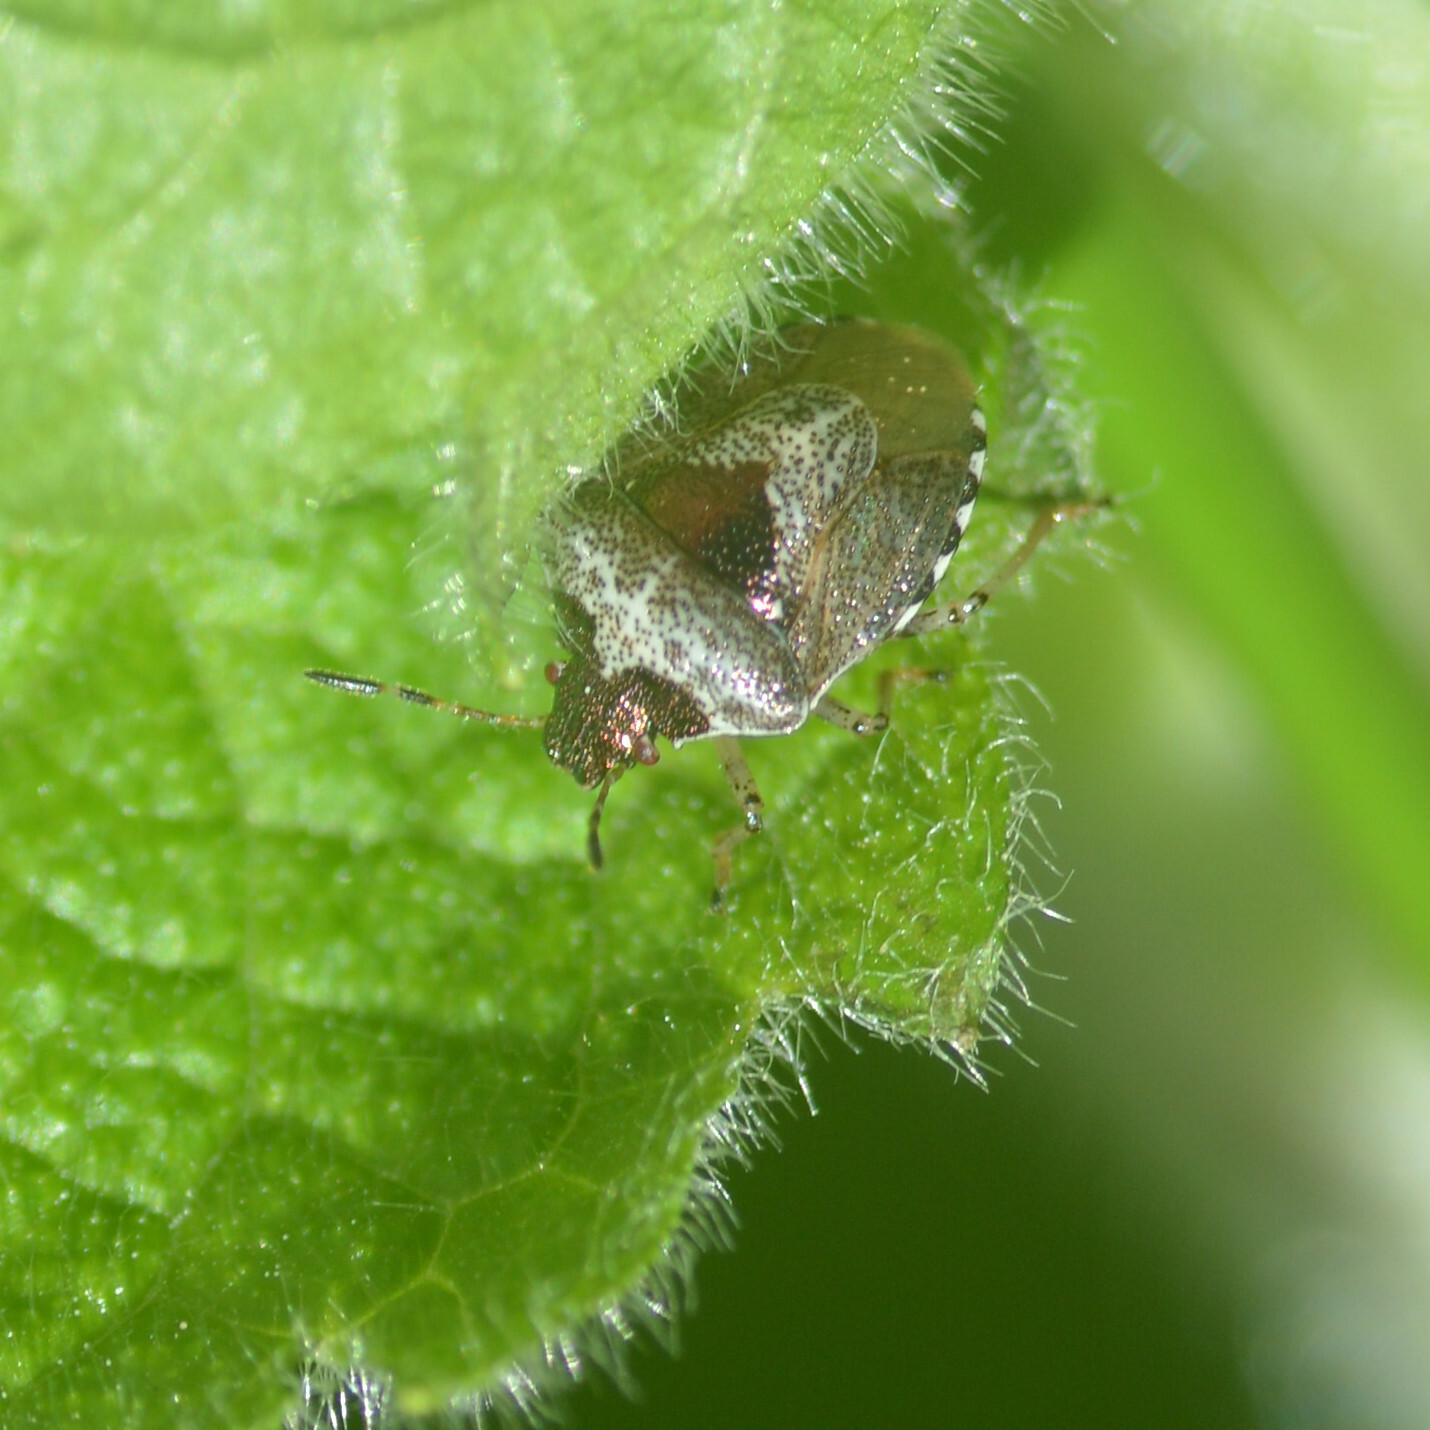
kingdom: Animalia
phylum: Arthropoda
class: Insecta
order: Hemiptera
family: Pentatomidae
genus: Eysarcoris
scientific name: Eysarcoris venustissimus
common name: Woundwort shieldbug
